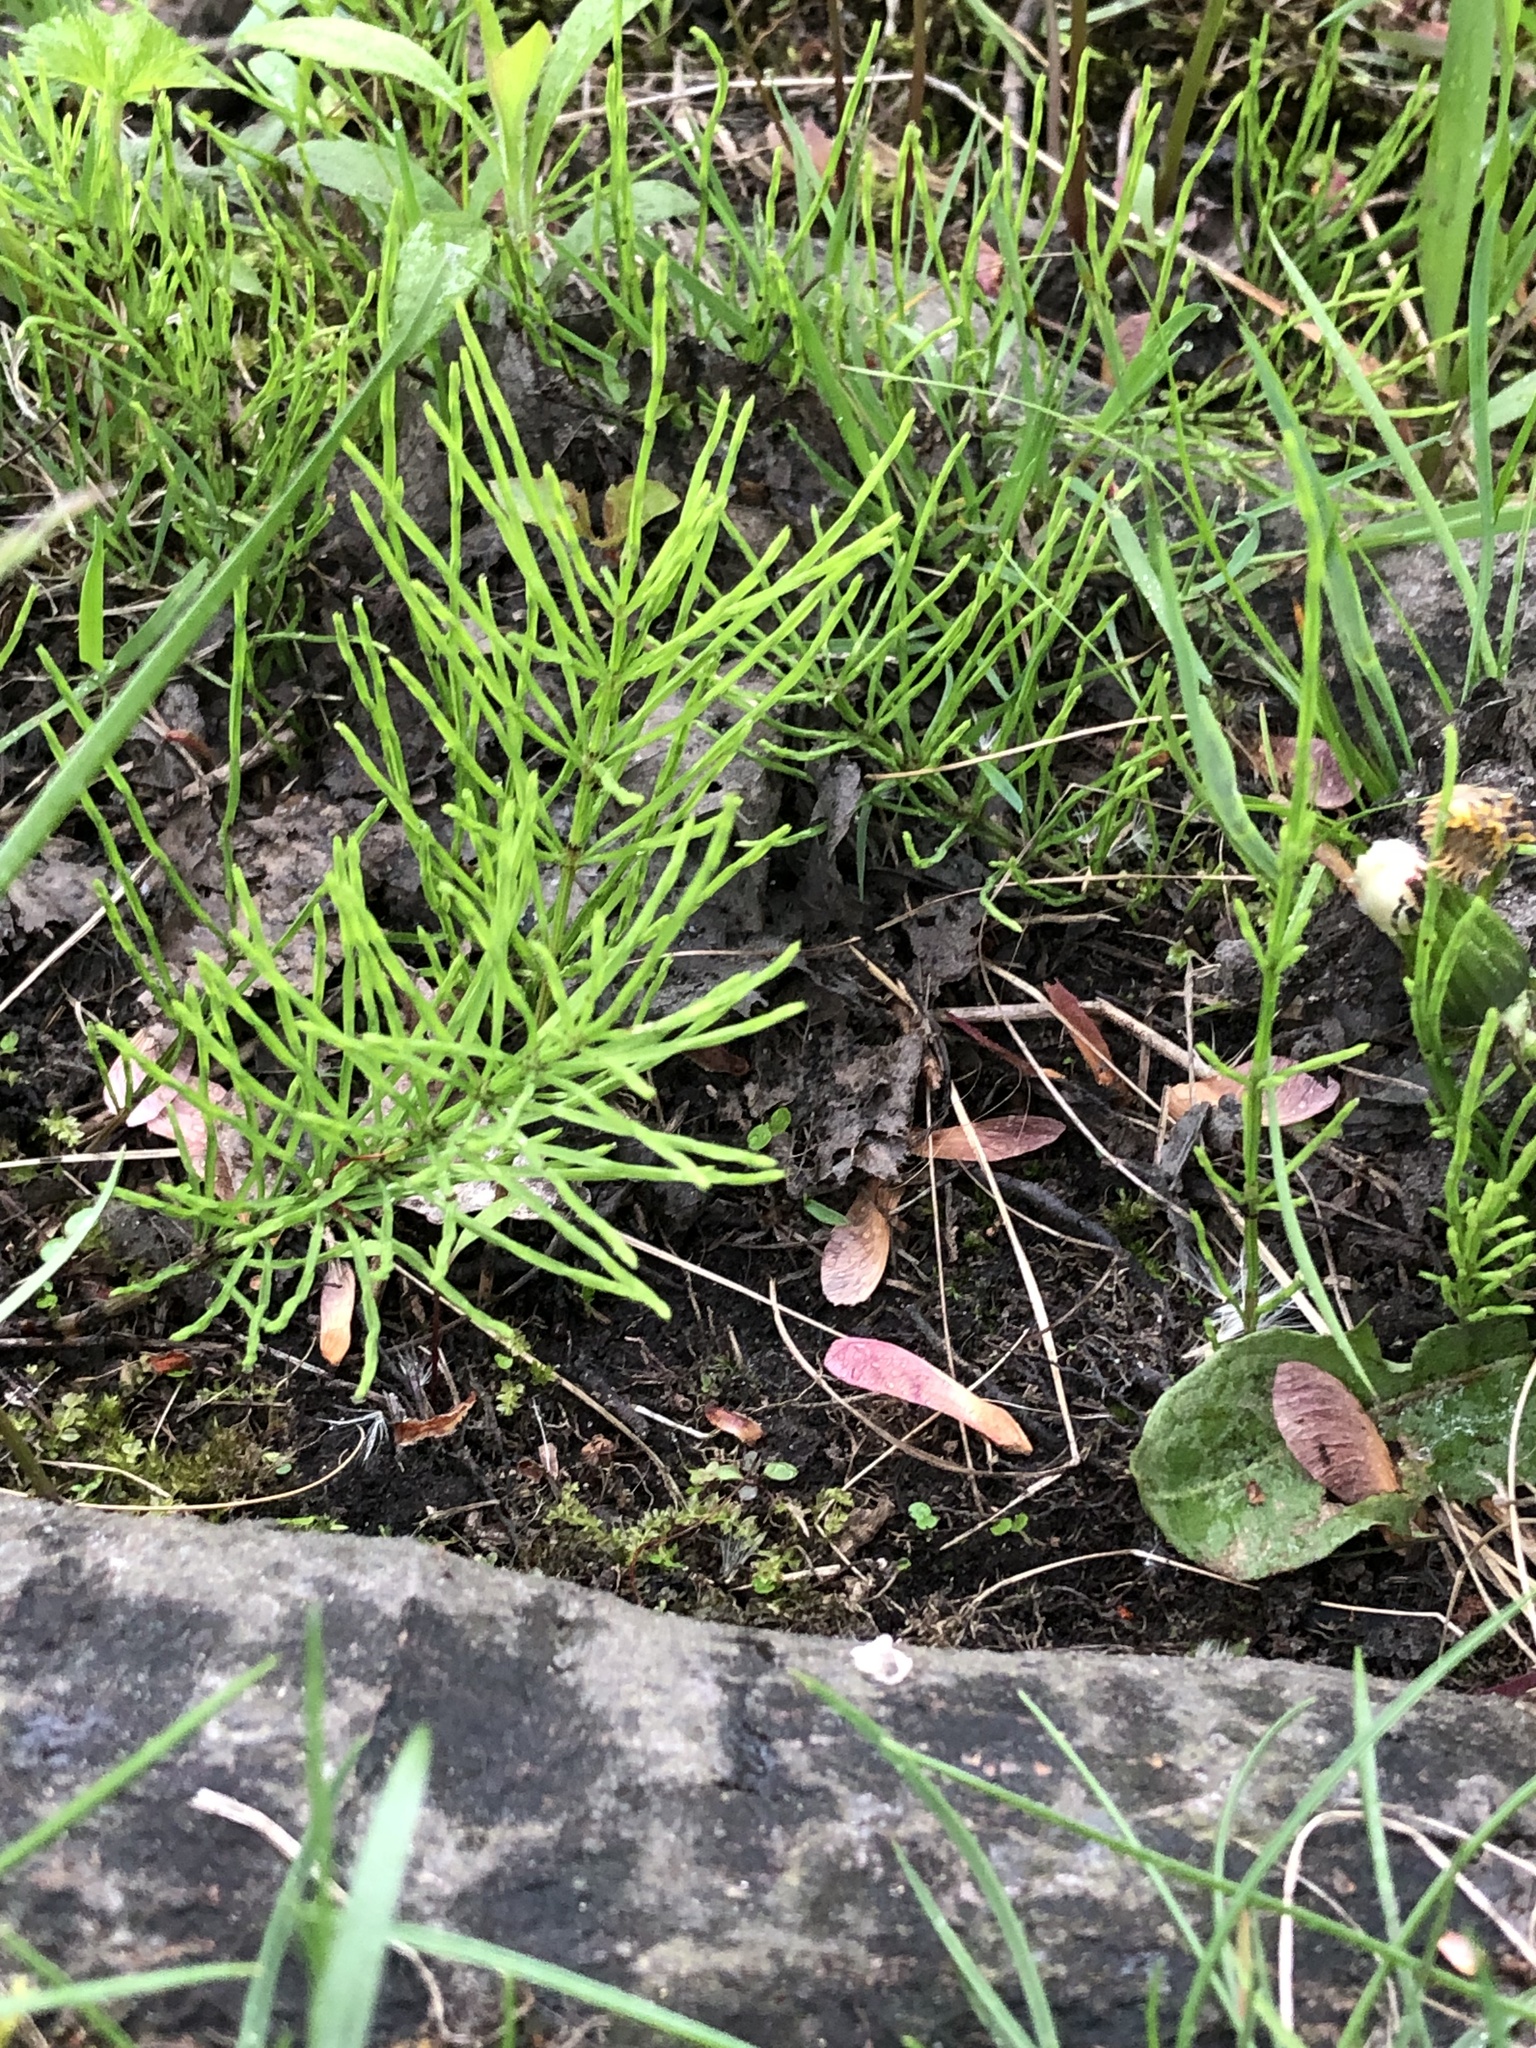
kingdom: Plantae
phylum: Tracheophyta
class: Polypodiopsida
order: Equisetales
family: Equisetaceae
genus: Equisetum
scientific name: Equisetum arvense
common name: Field horsetail
